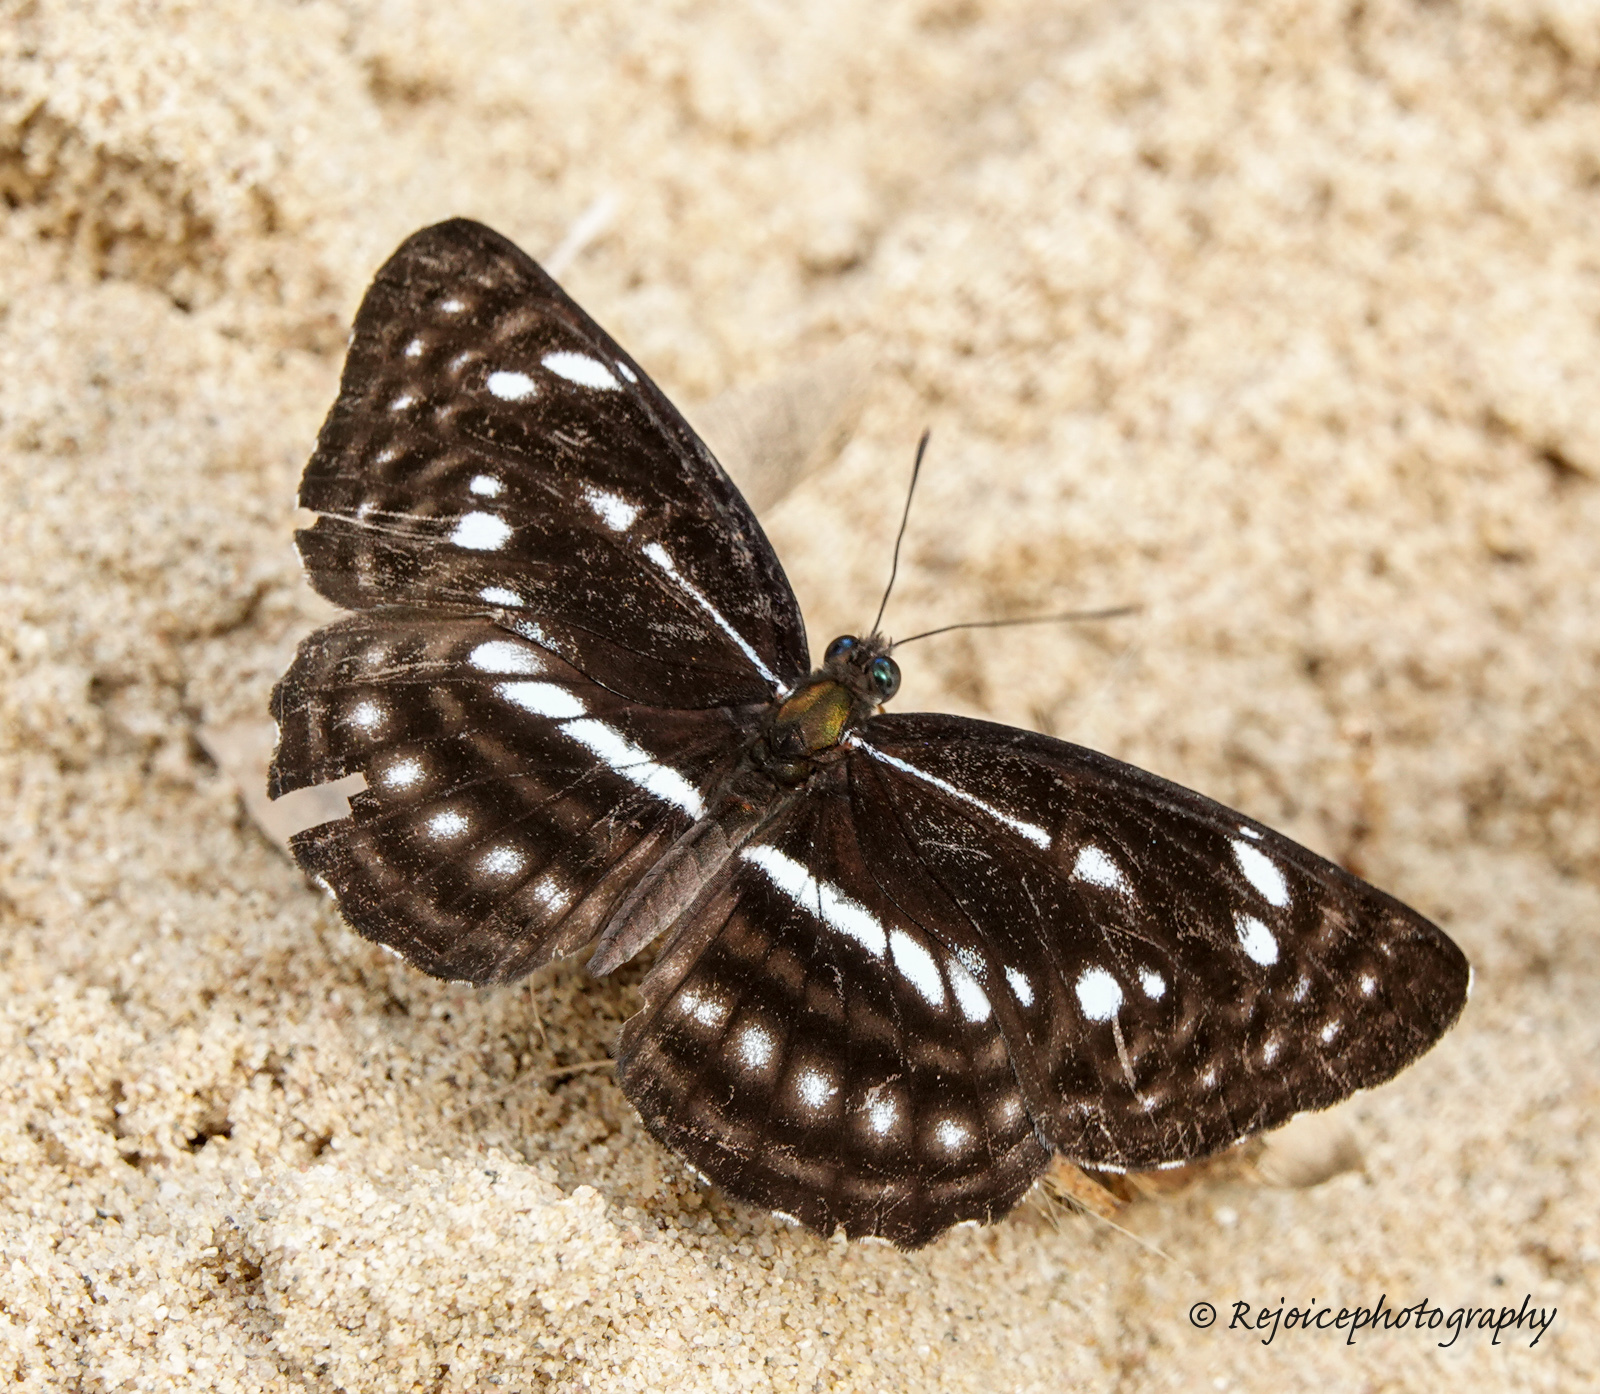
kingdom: Animalia
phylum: Arthropoda
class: Insecta
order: Lepidoptera
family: Nymphalidae
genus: Neptis
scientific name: Neptis magadha
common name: Spotted sailer
